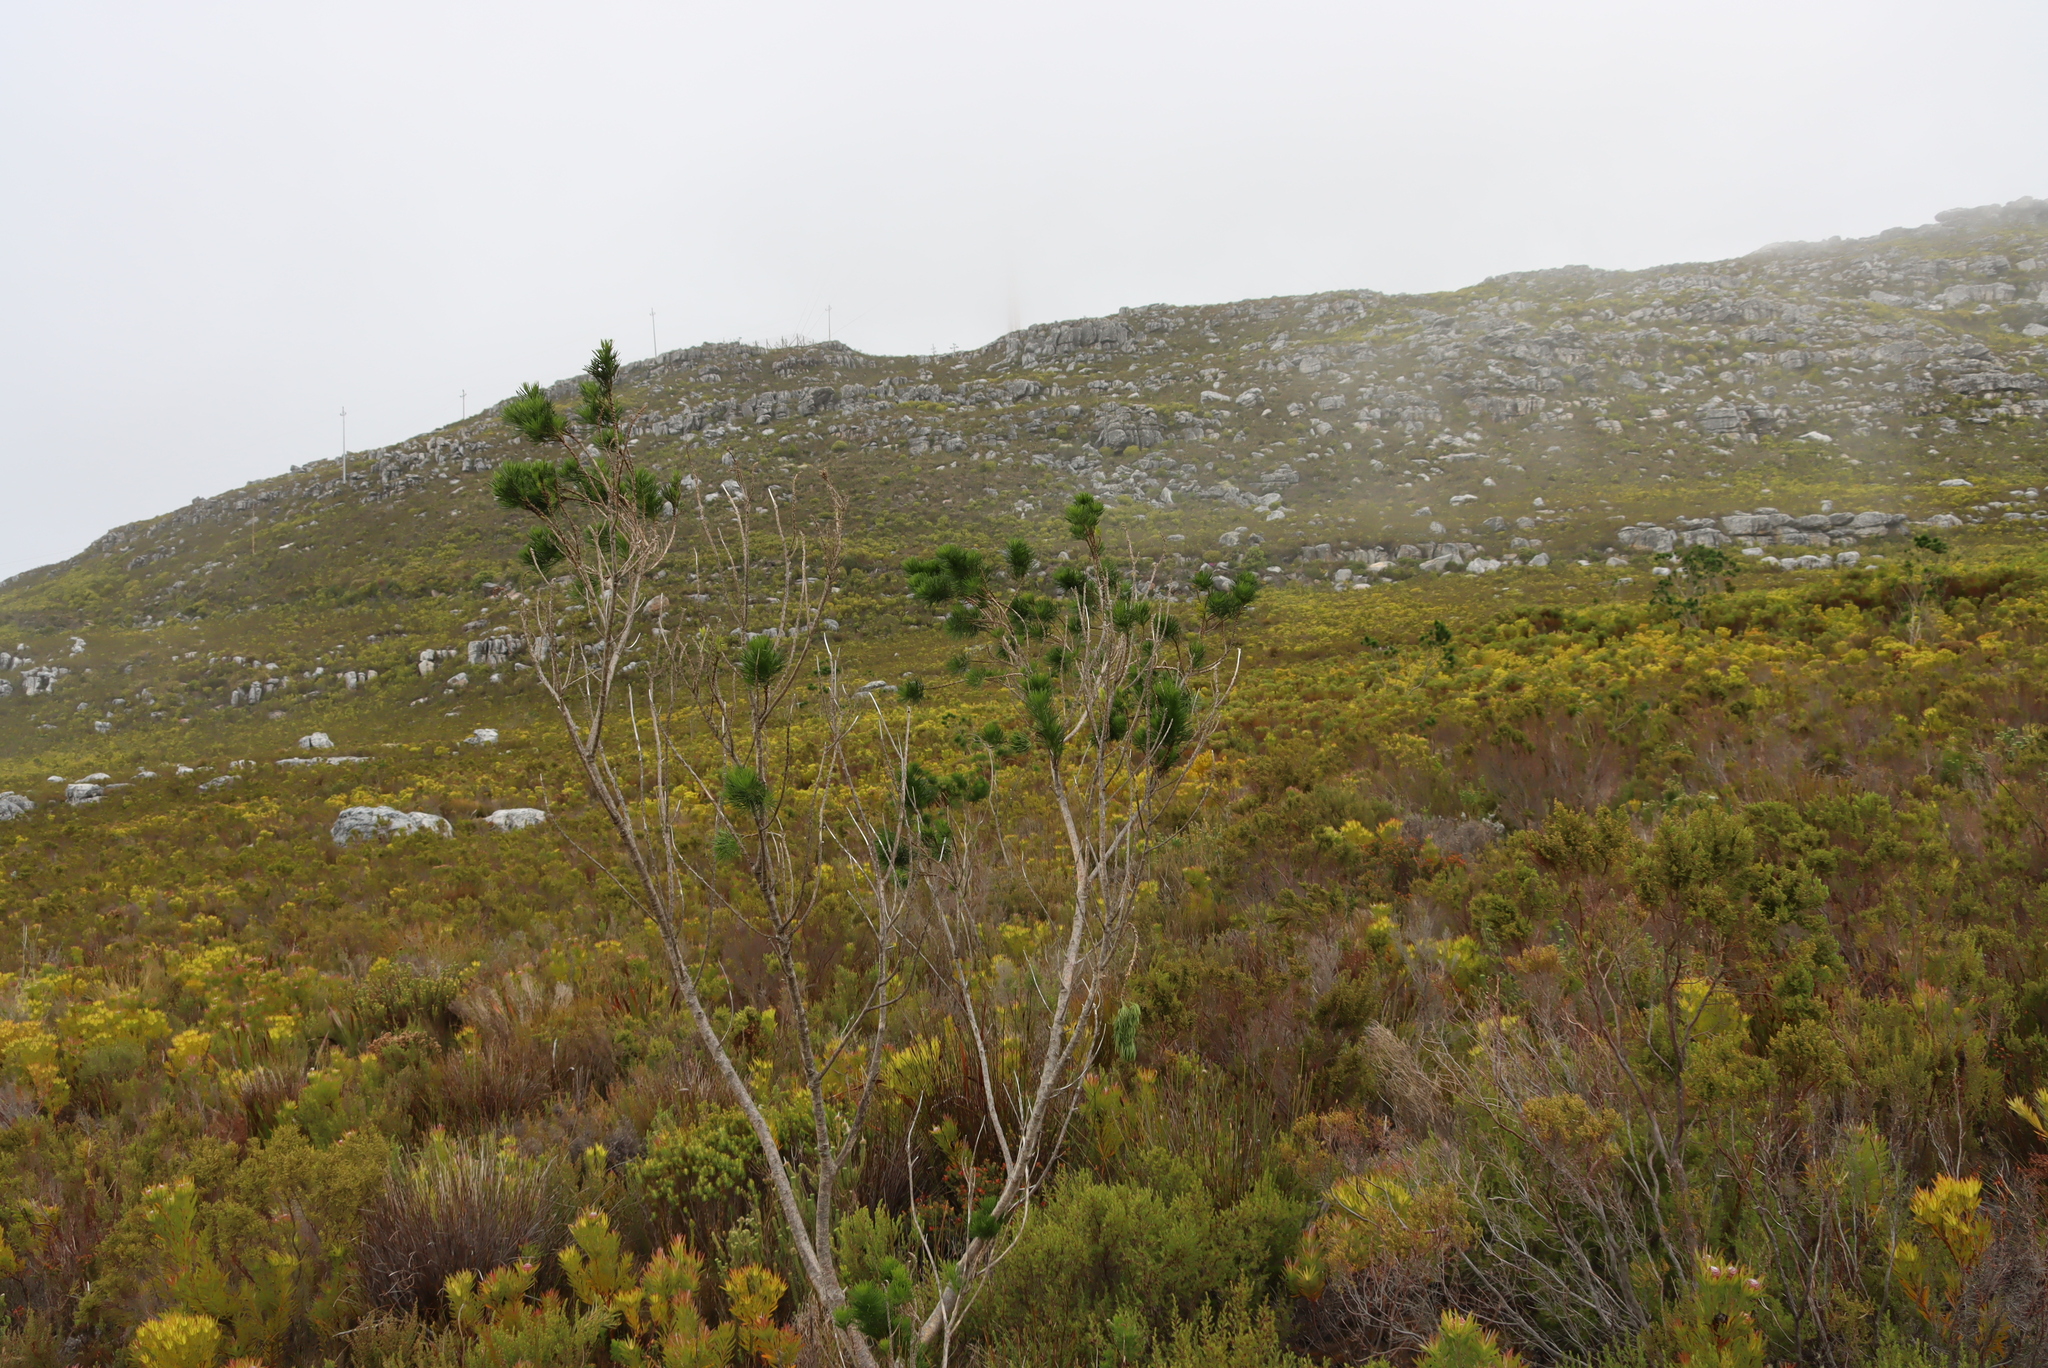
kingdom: Plantae
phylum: Tracheophyta
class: Magnoliopsida
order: Fabales
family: Fabaceae
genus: Psoralea
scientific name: Psoralea pinnata
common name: African scurfpea
